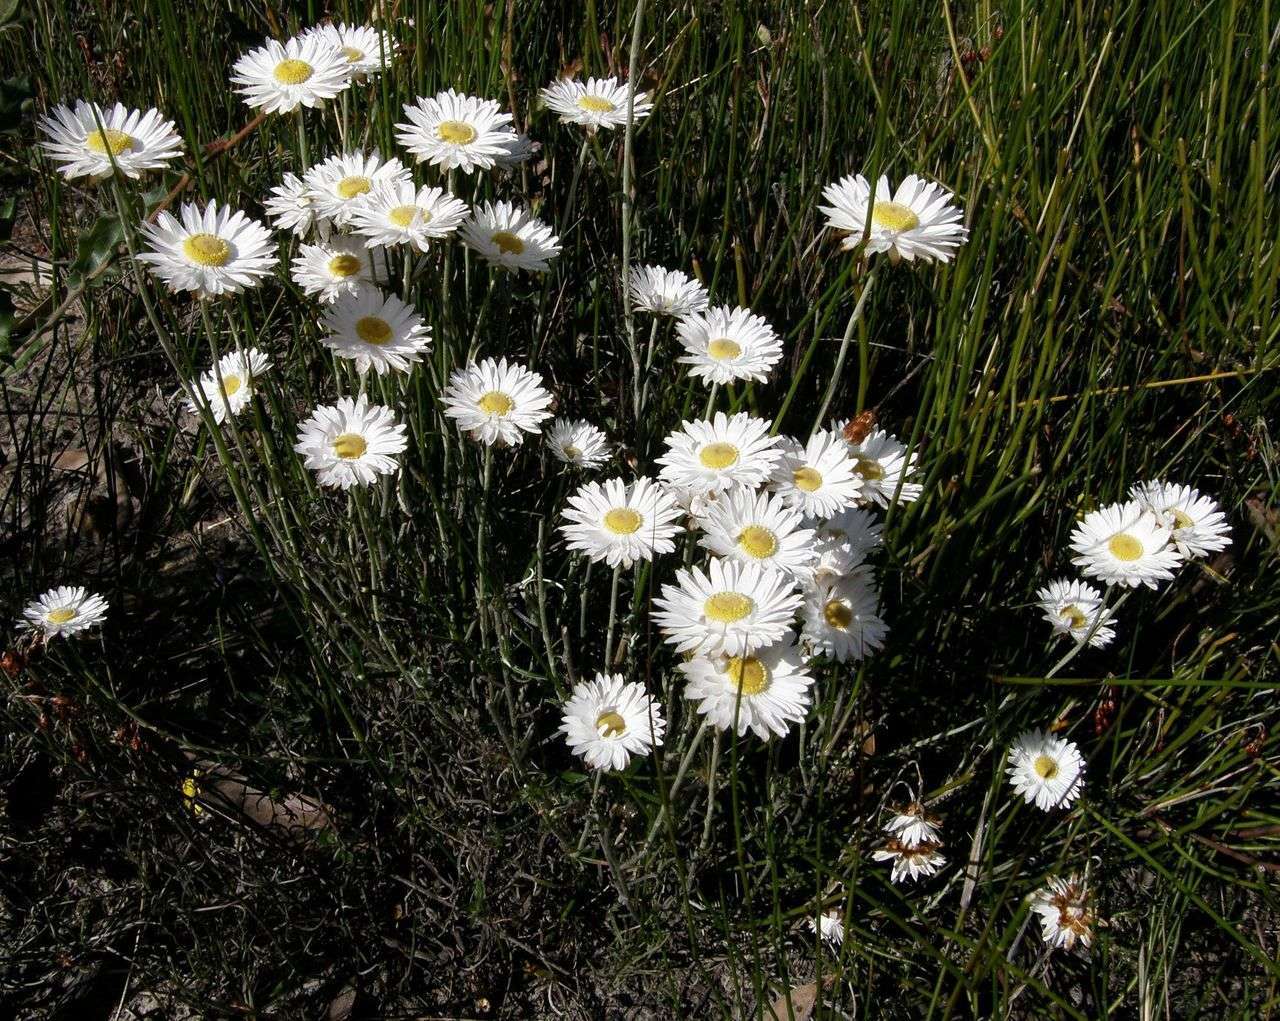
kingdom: Plantae
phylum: Tracheophyta
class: Magnoliopsida
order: Asterales
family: Asteraceae
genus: Argentipallium
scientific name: Argentipallium obtusifolium
